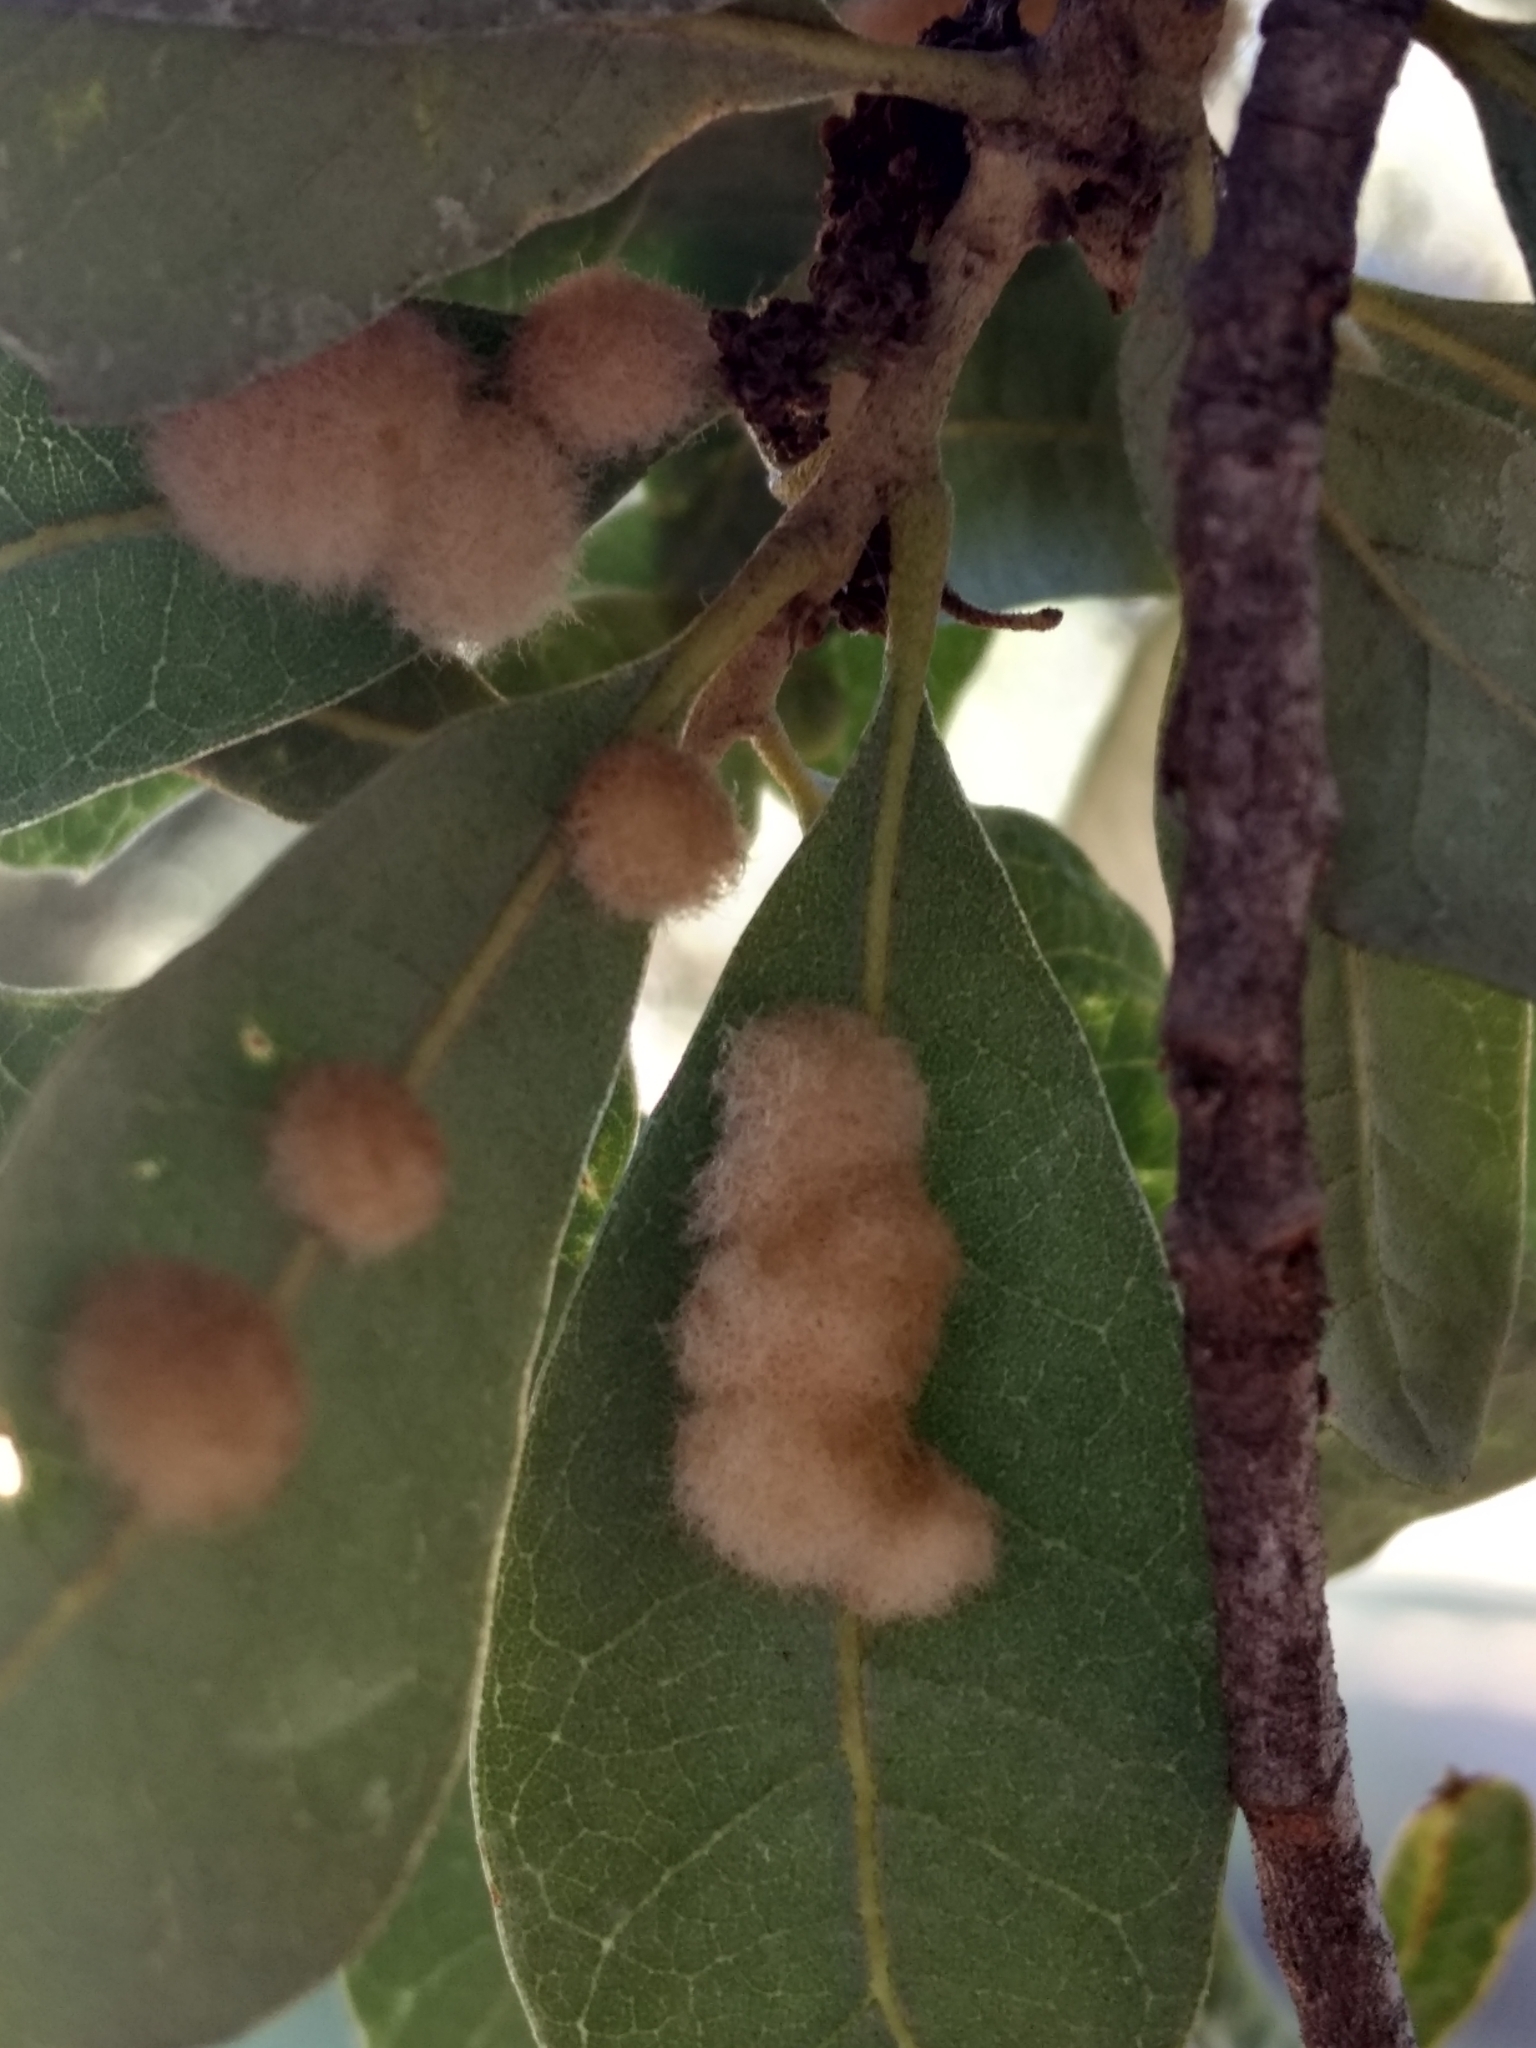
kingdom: Animalia
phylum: Arthropoda
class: Insecta
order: Hymenoptera
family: Cynipidae
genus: Andricus
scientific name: Andricus Druon quercuslanigerum
